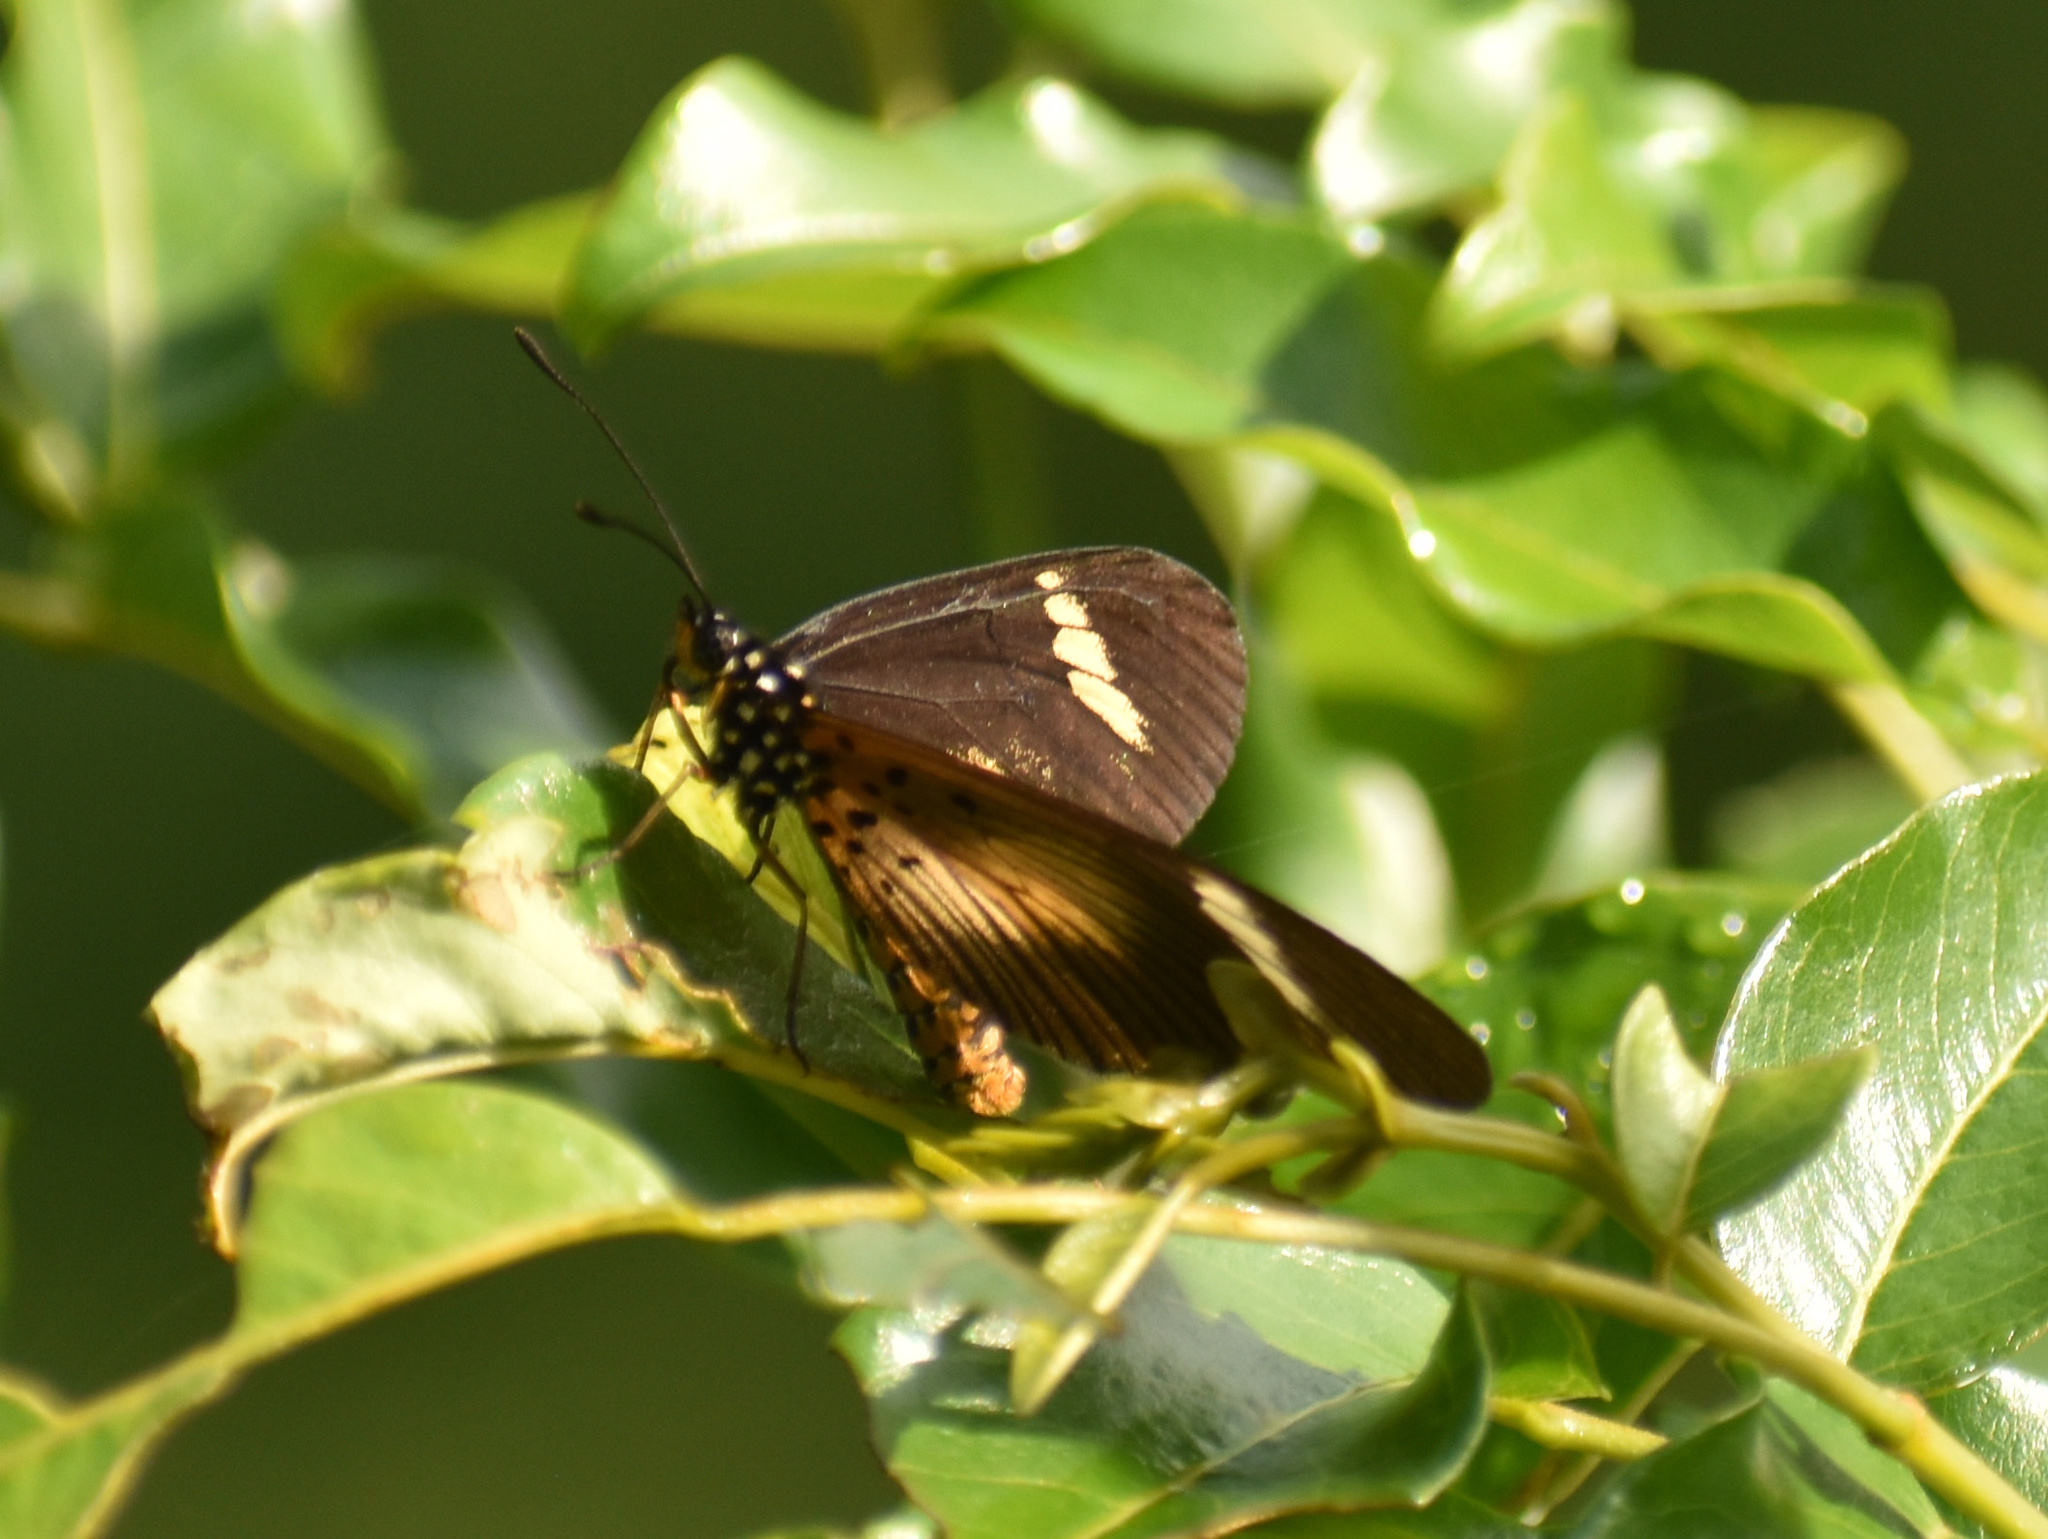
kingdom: Animalia
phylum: Arthropoda
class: Insecta
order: Lepidoptera
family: Nymphalidae
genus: Acraea
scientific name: Acraea esebria
